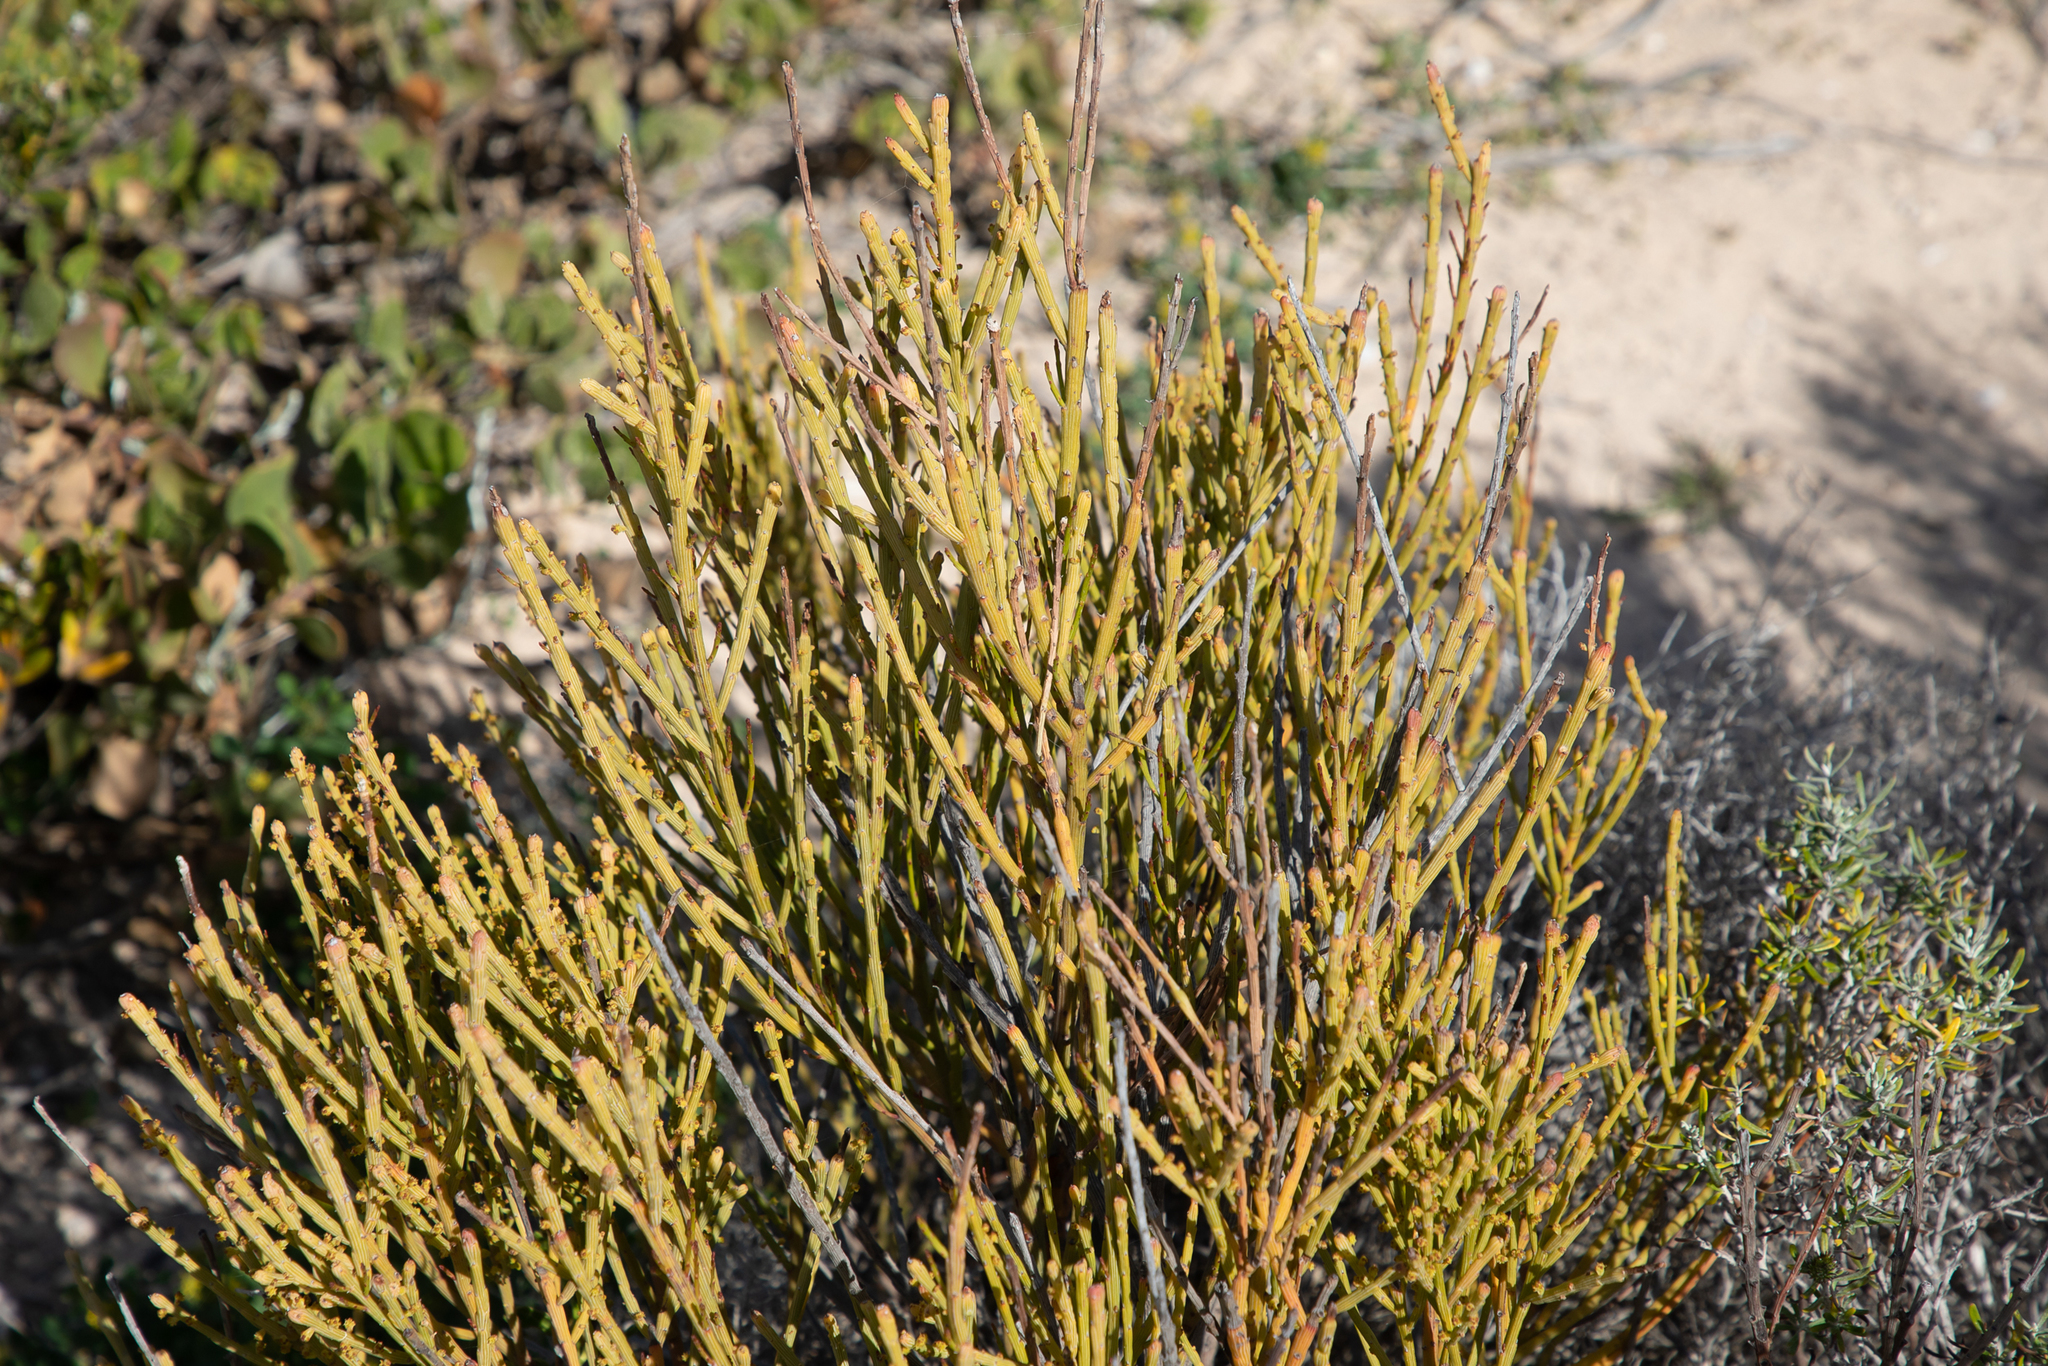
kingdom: Plantae
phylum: Tracheophyta
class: Magnoliopsida
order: Santalales
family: Santalaceae
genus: Exocarpos
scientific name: Exocarpos syrticola
